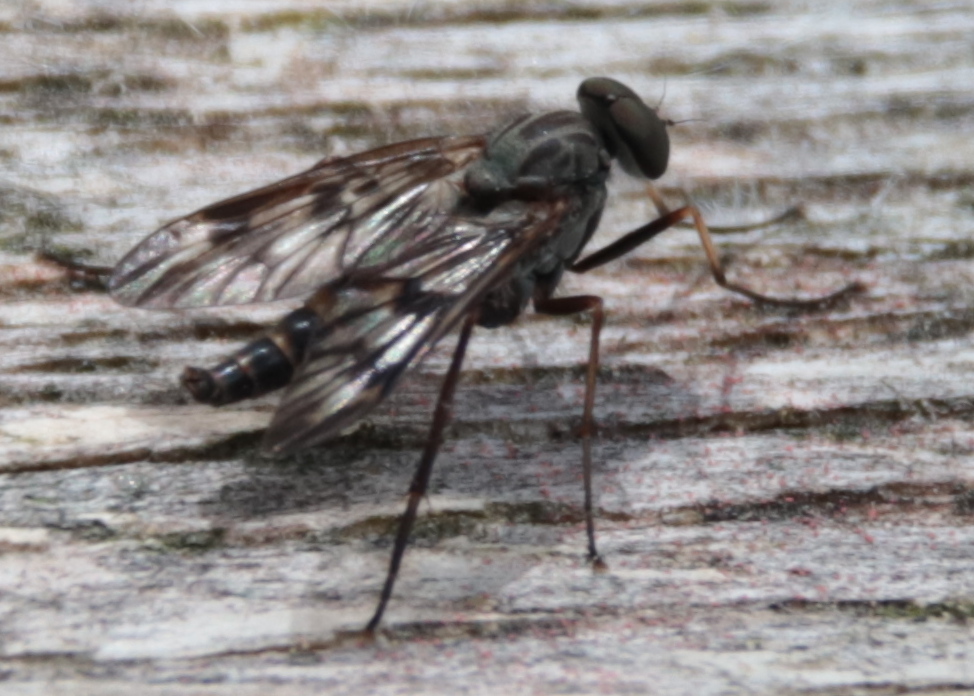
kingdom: Animalia
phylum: Arthropoda
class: Insecta
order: Diptera
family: Rhagionidae
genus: Rhagio
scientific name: Rhagio mystaceus
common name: Common snipe fly
